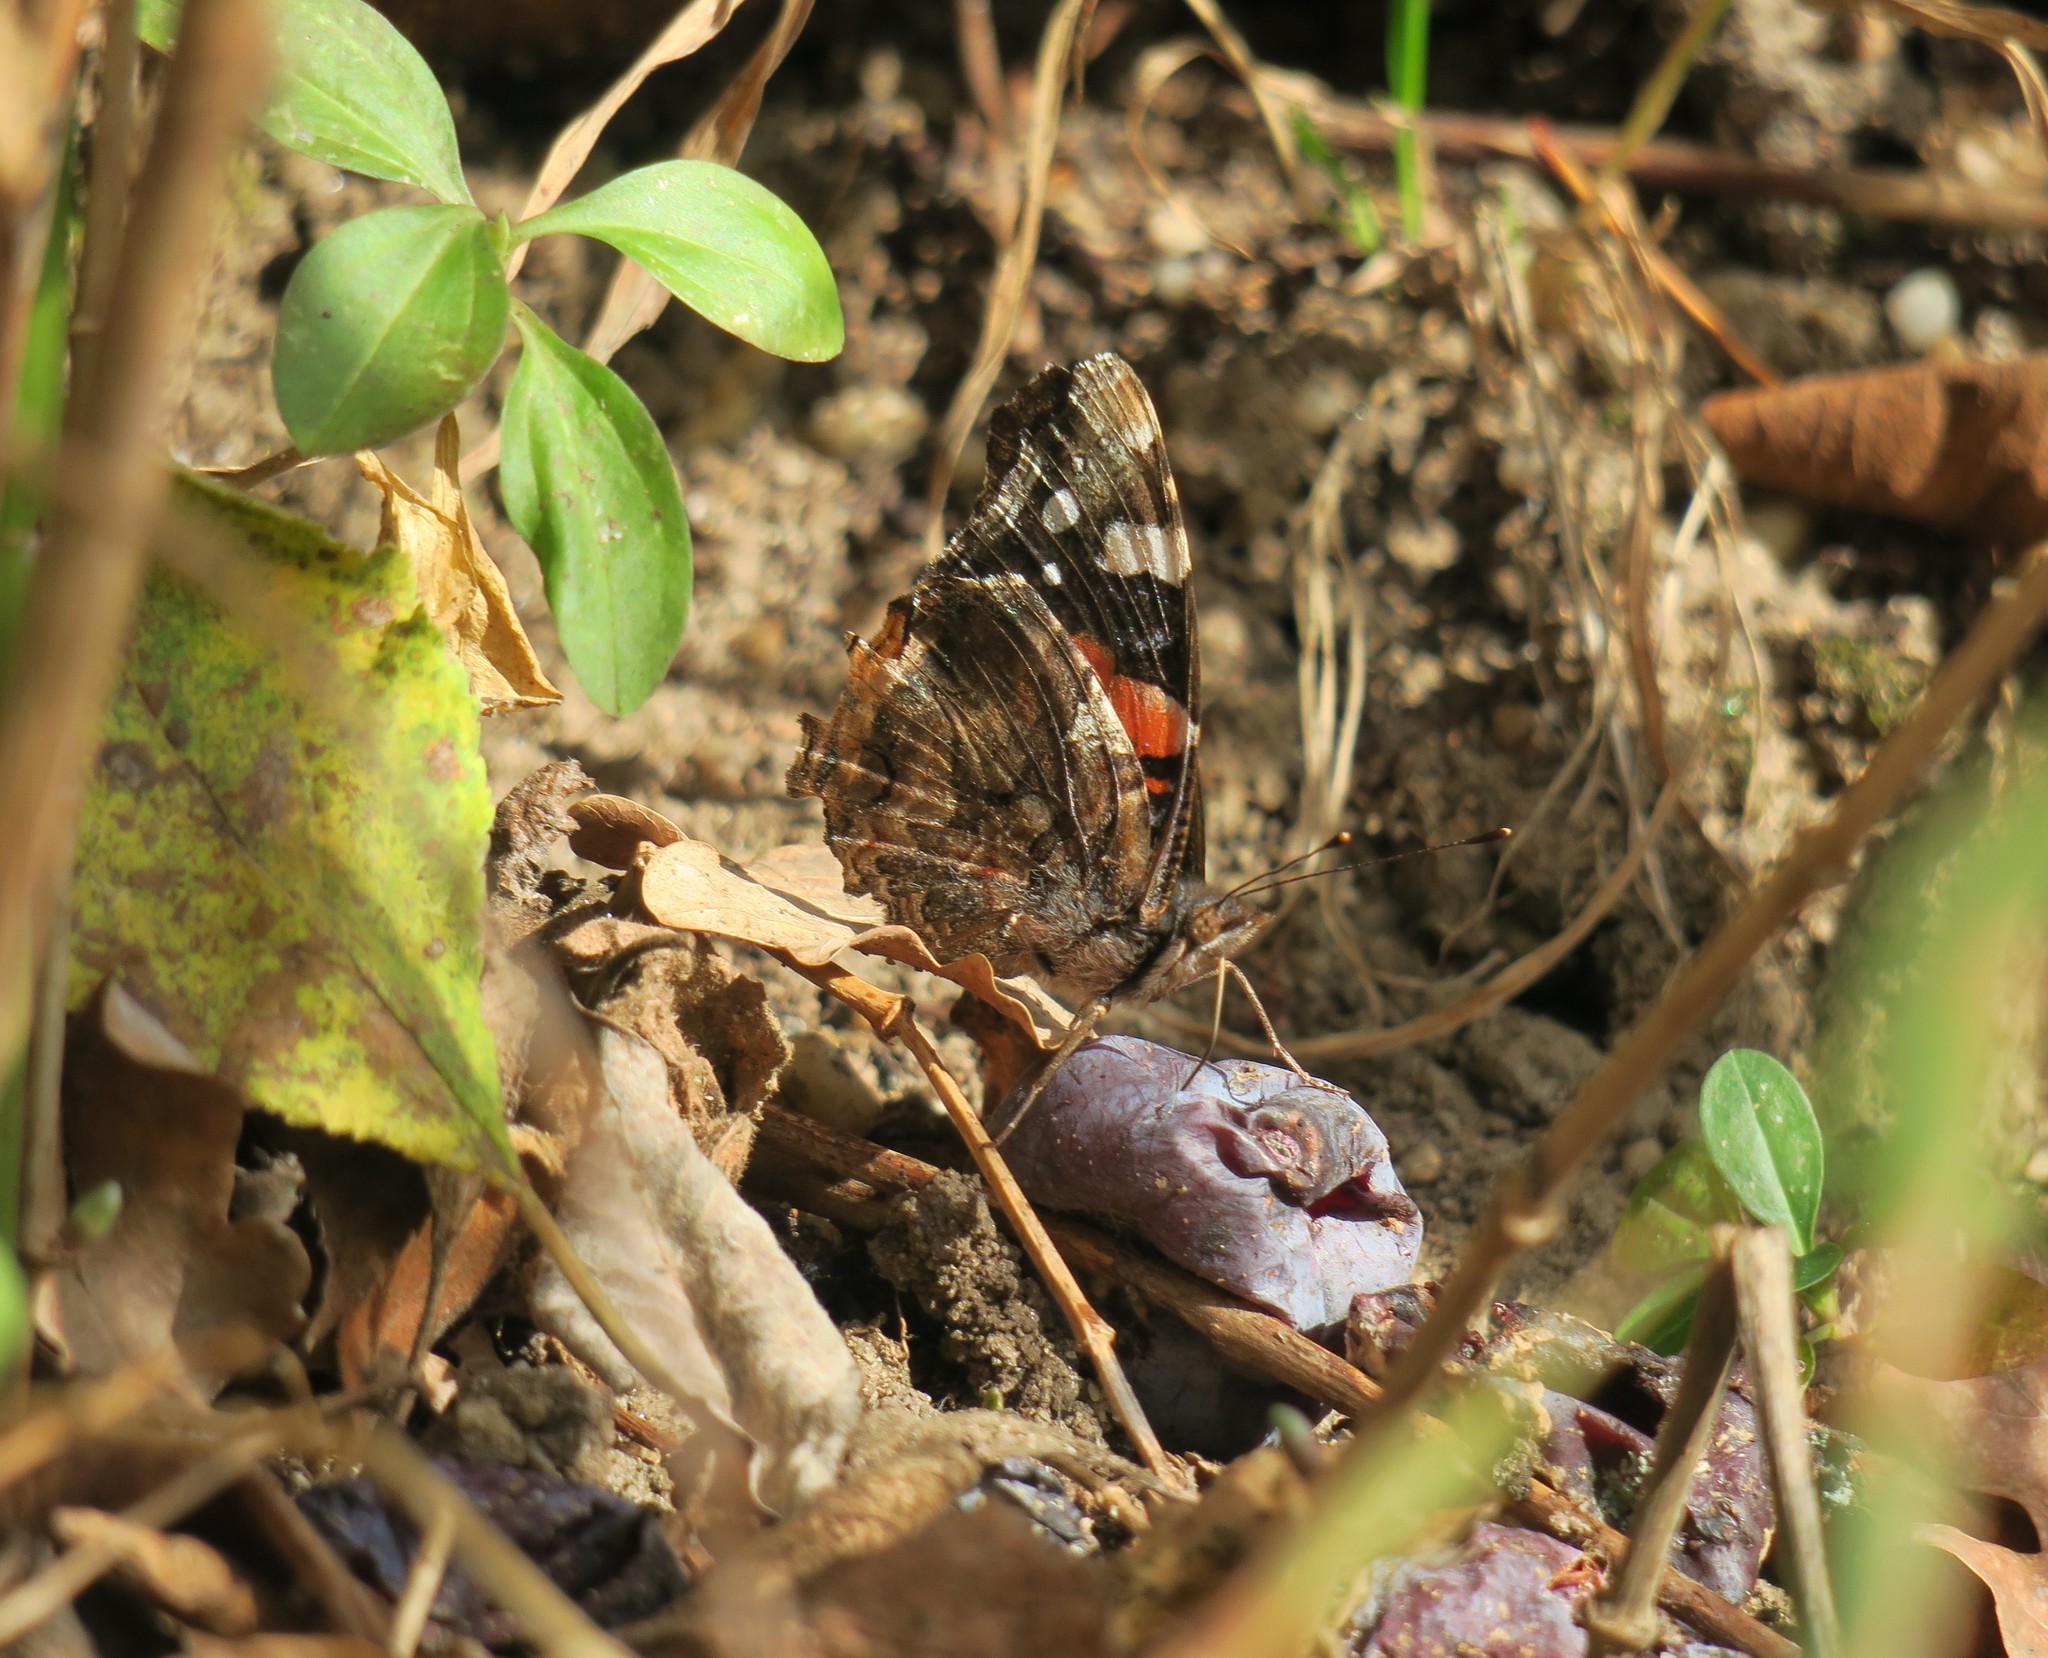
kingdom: Animalia
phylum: Arthropoda
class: Insecta
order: Lepidoptera
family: Nymphalidae
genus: Vanessa
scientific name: Vanessa atalanta
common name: Red admiral
